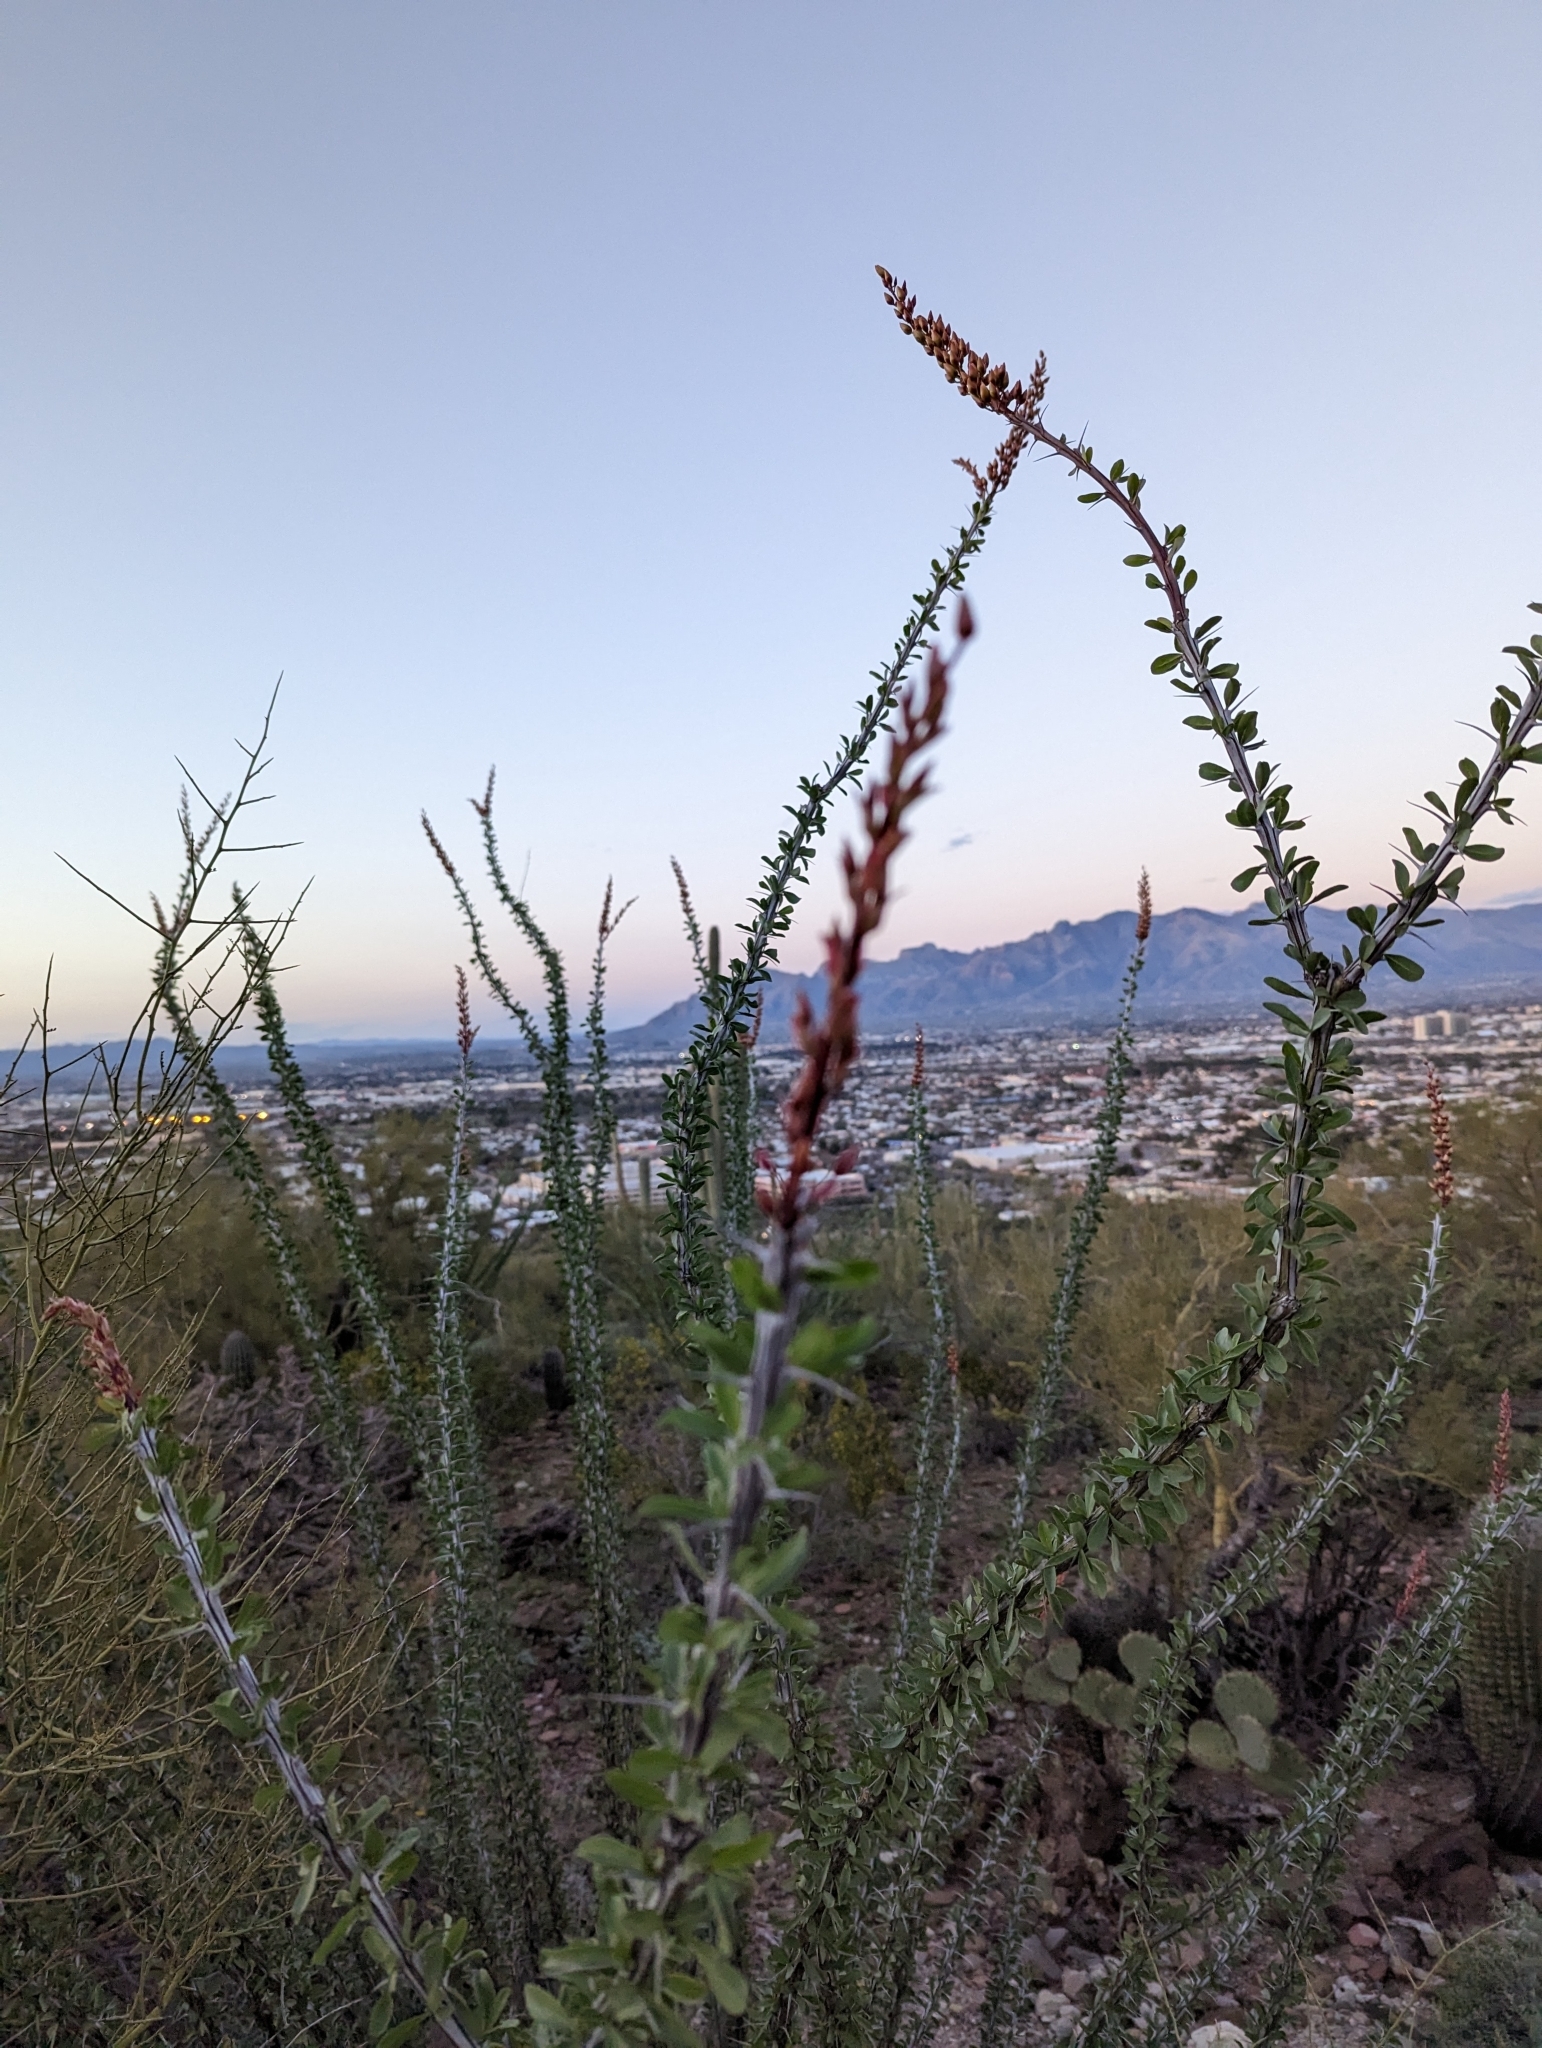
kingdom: Plantae
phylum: Tracheophyta
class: Magnoliopsida
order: Ericales
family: Fouquieriaceae
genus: Fouquieria
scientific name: Fouquieria splendens
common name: Vine-cactus
